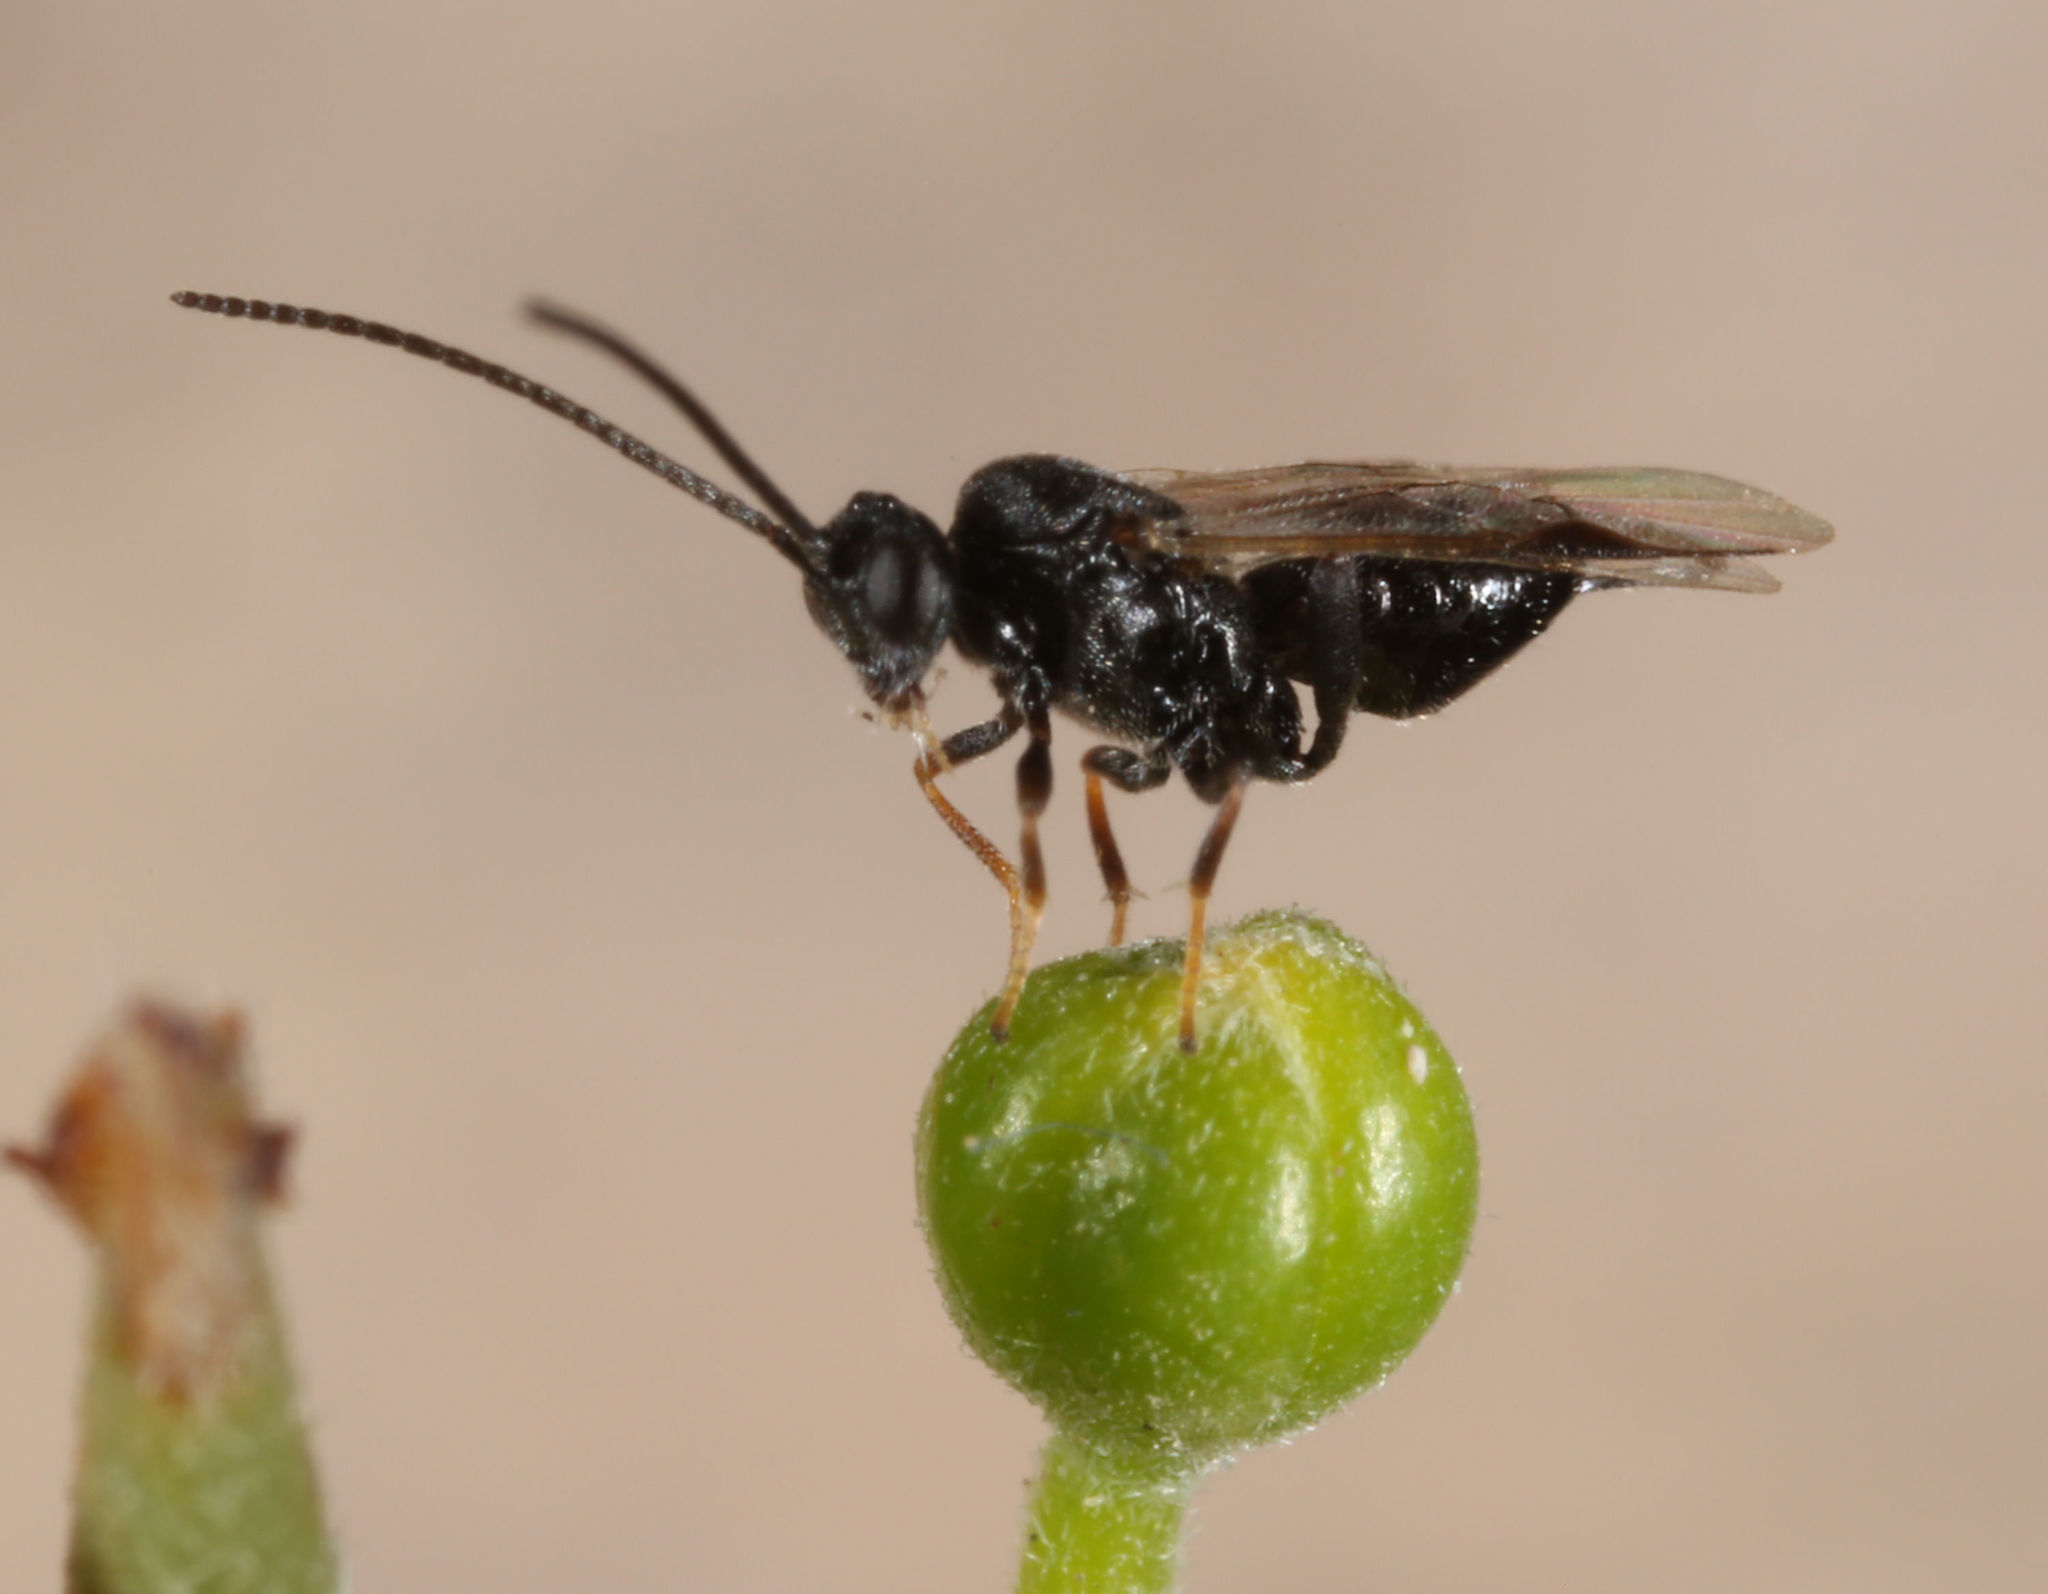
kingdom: Animalia
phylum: Arthropoda
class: Insecta
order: Hymenoptera
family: Braconidae
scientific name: Braconidae
